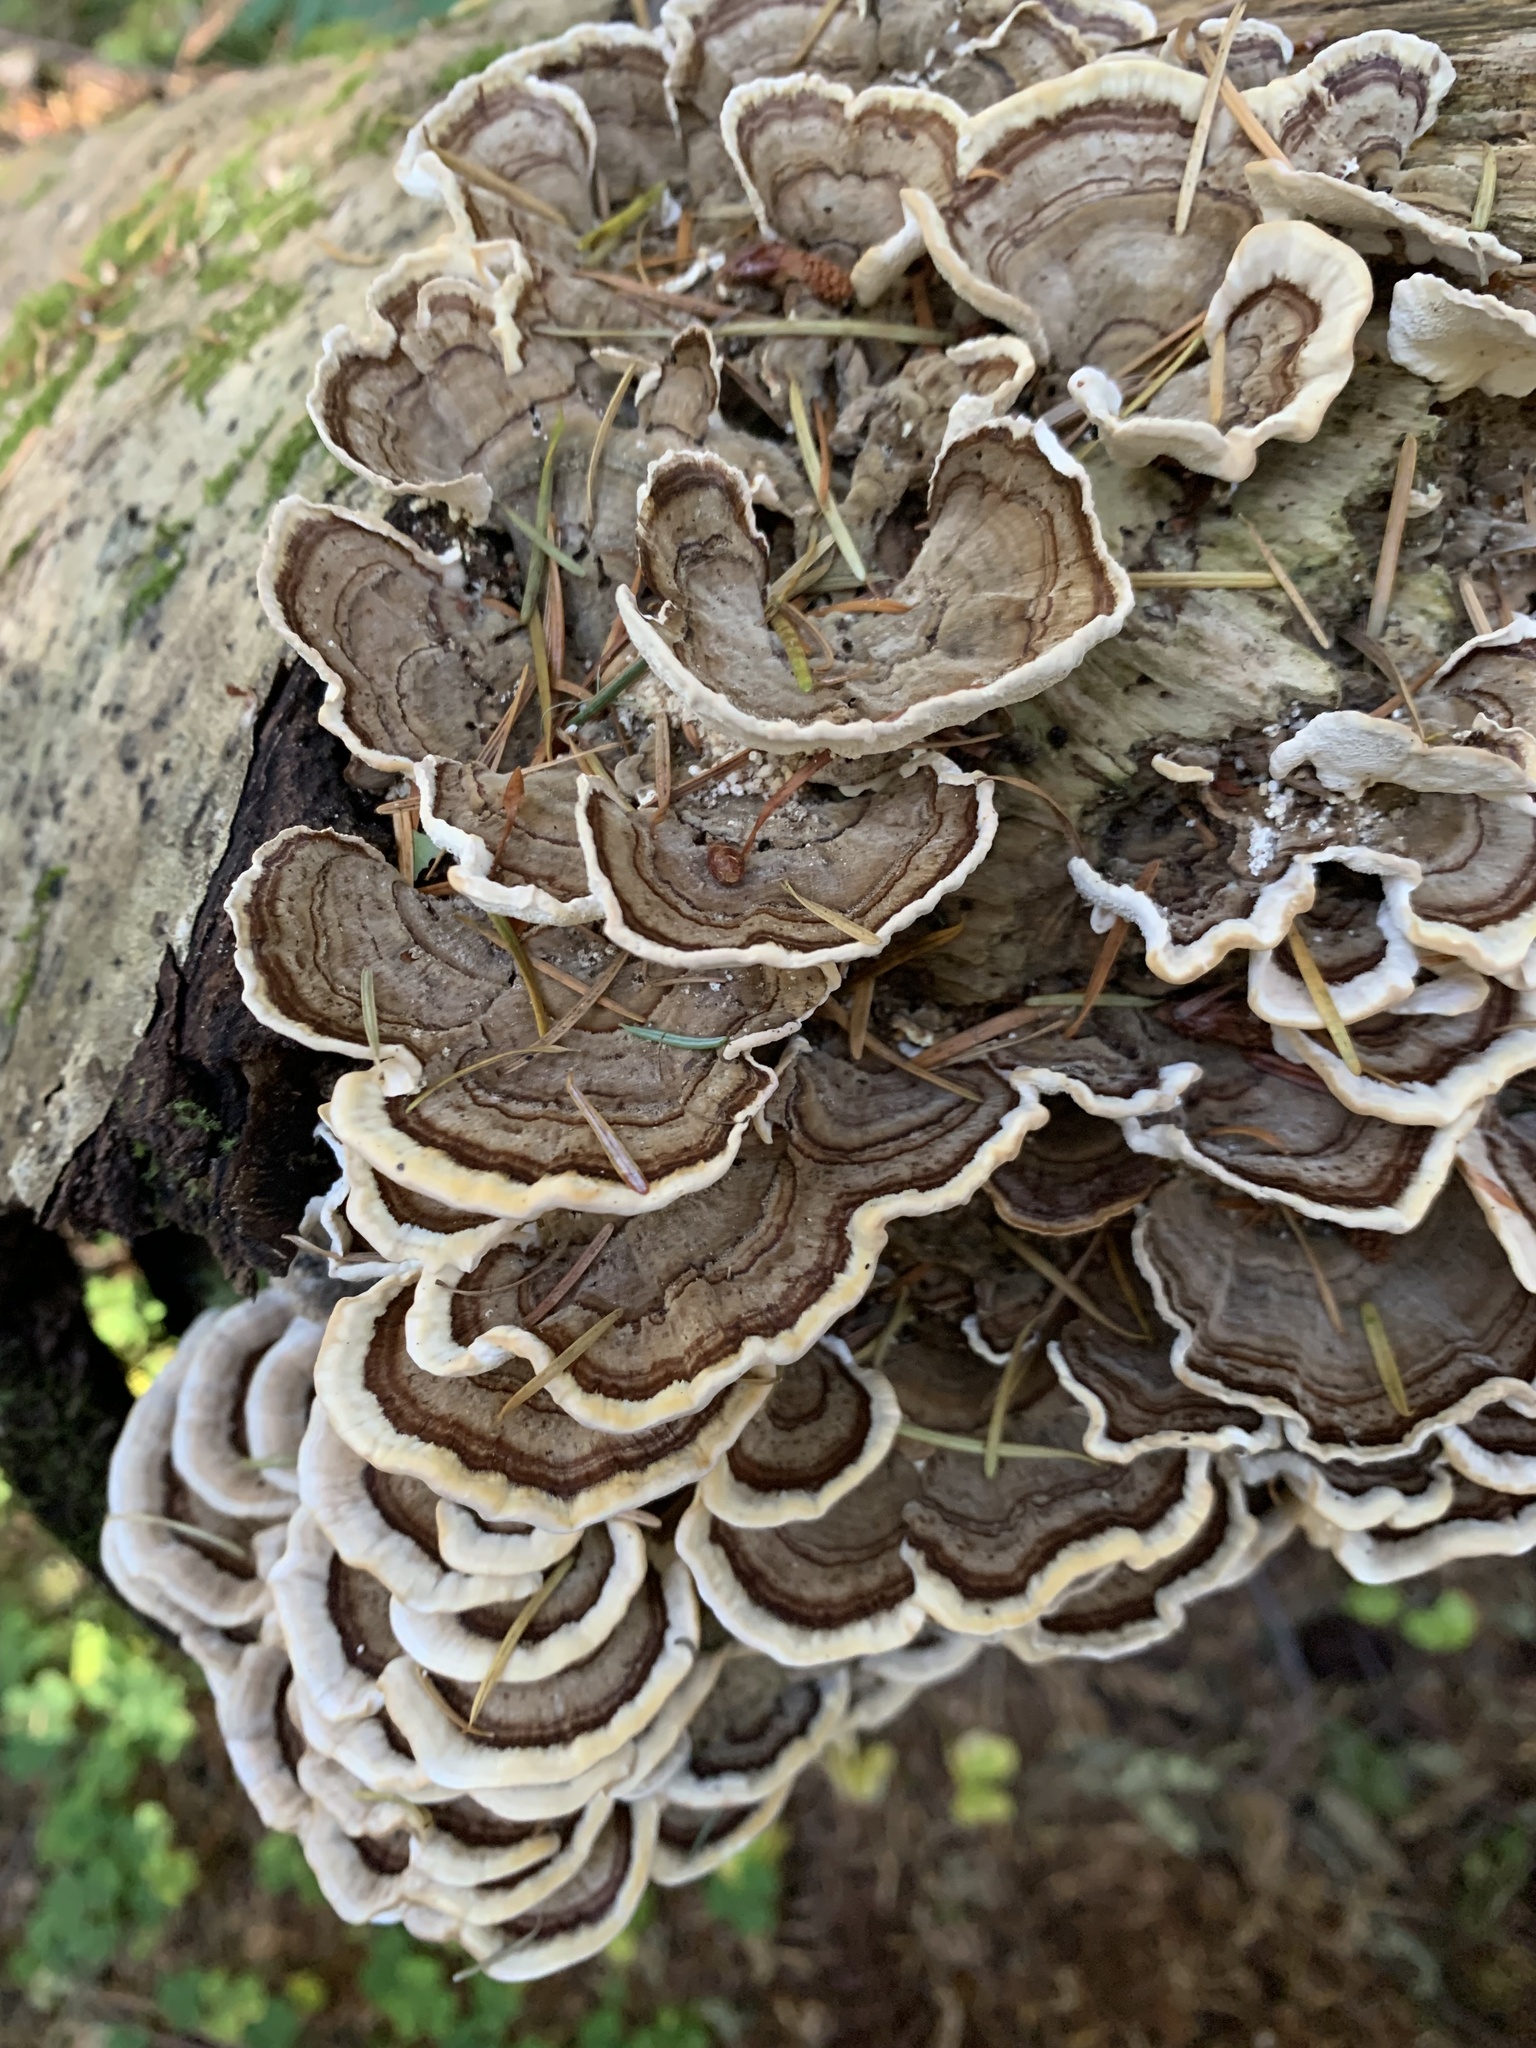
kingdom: Fungi
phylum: Basidiomycota
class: Agaricomycetes
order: Polyporales
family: Polyporaceae
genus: Trametes
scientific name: Trametes versicolor
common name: Turkeytail
